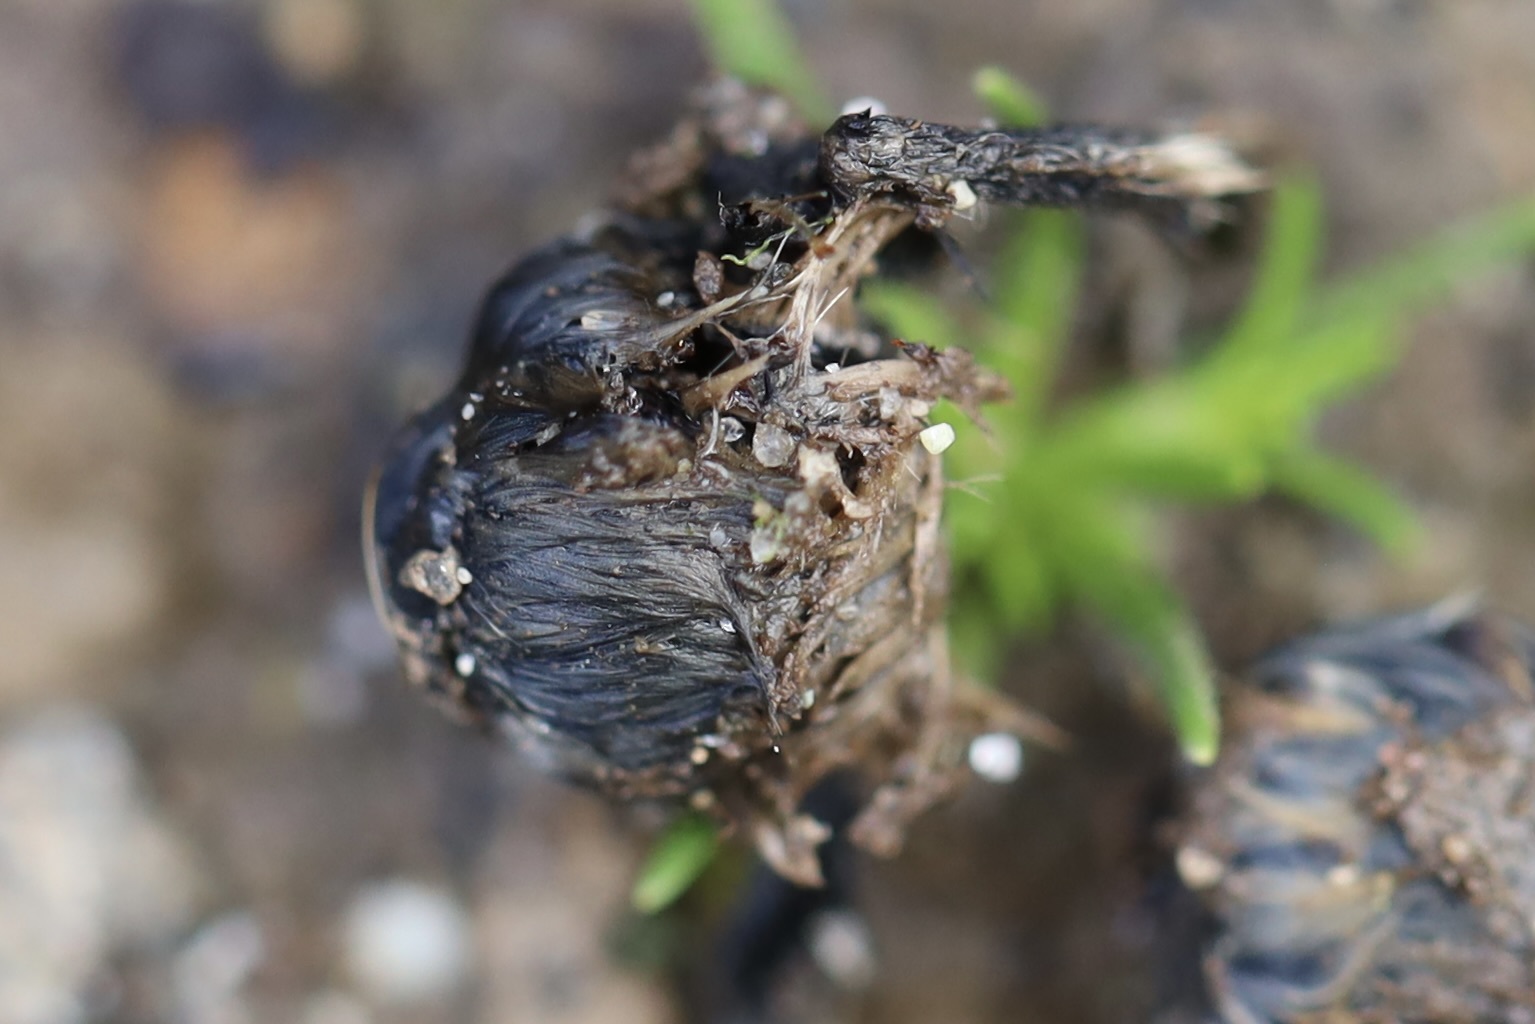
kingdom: Animalia
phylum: Arthropoda
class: Insecta
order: Hymenoptera
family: Apidae
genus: Anthophora
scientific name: Anthophora pacifica
